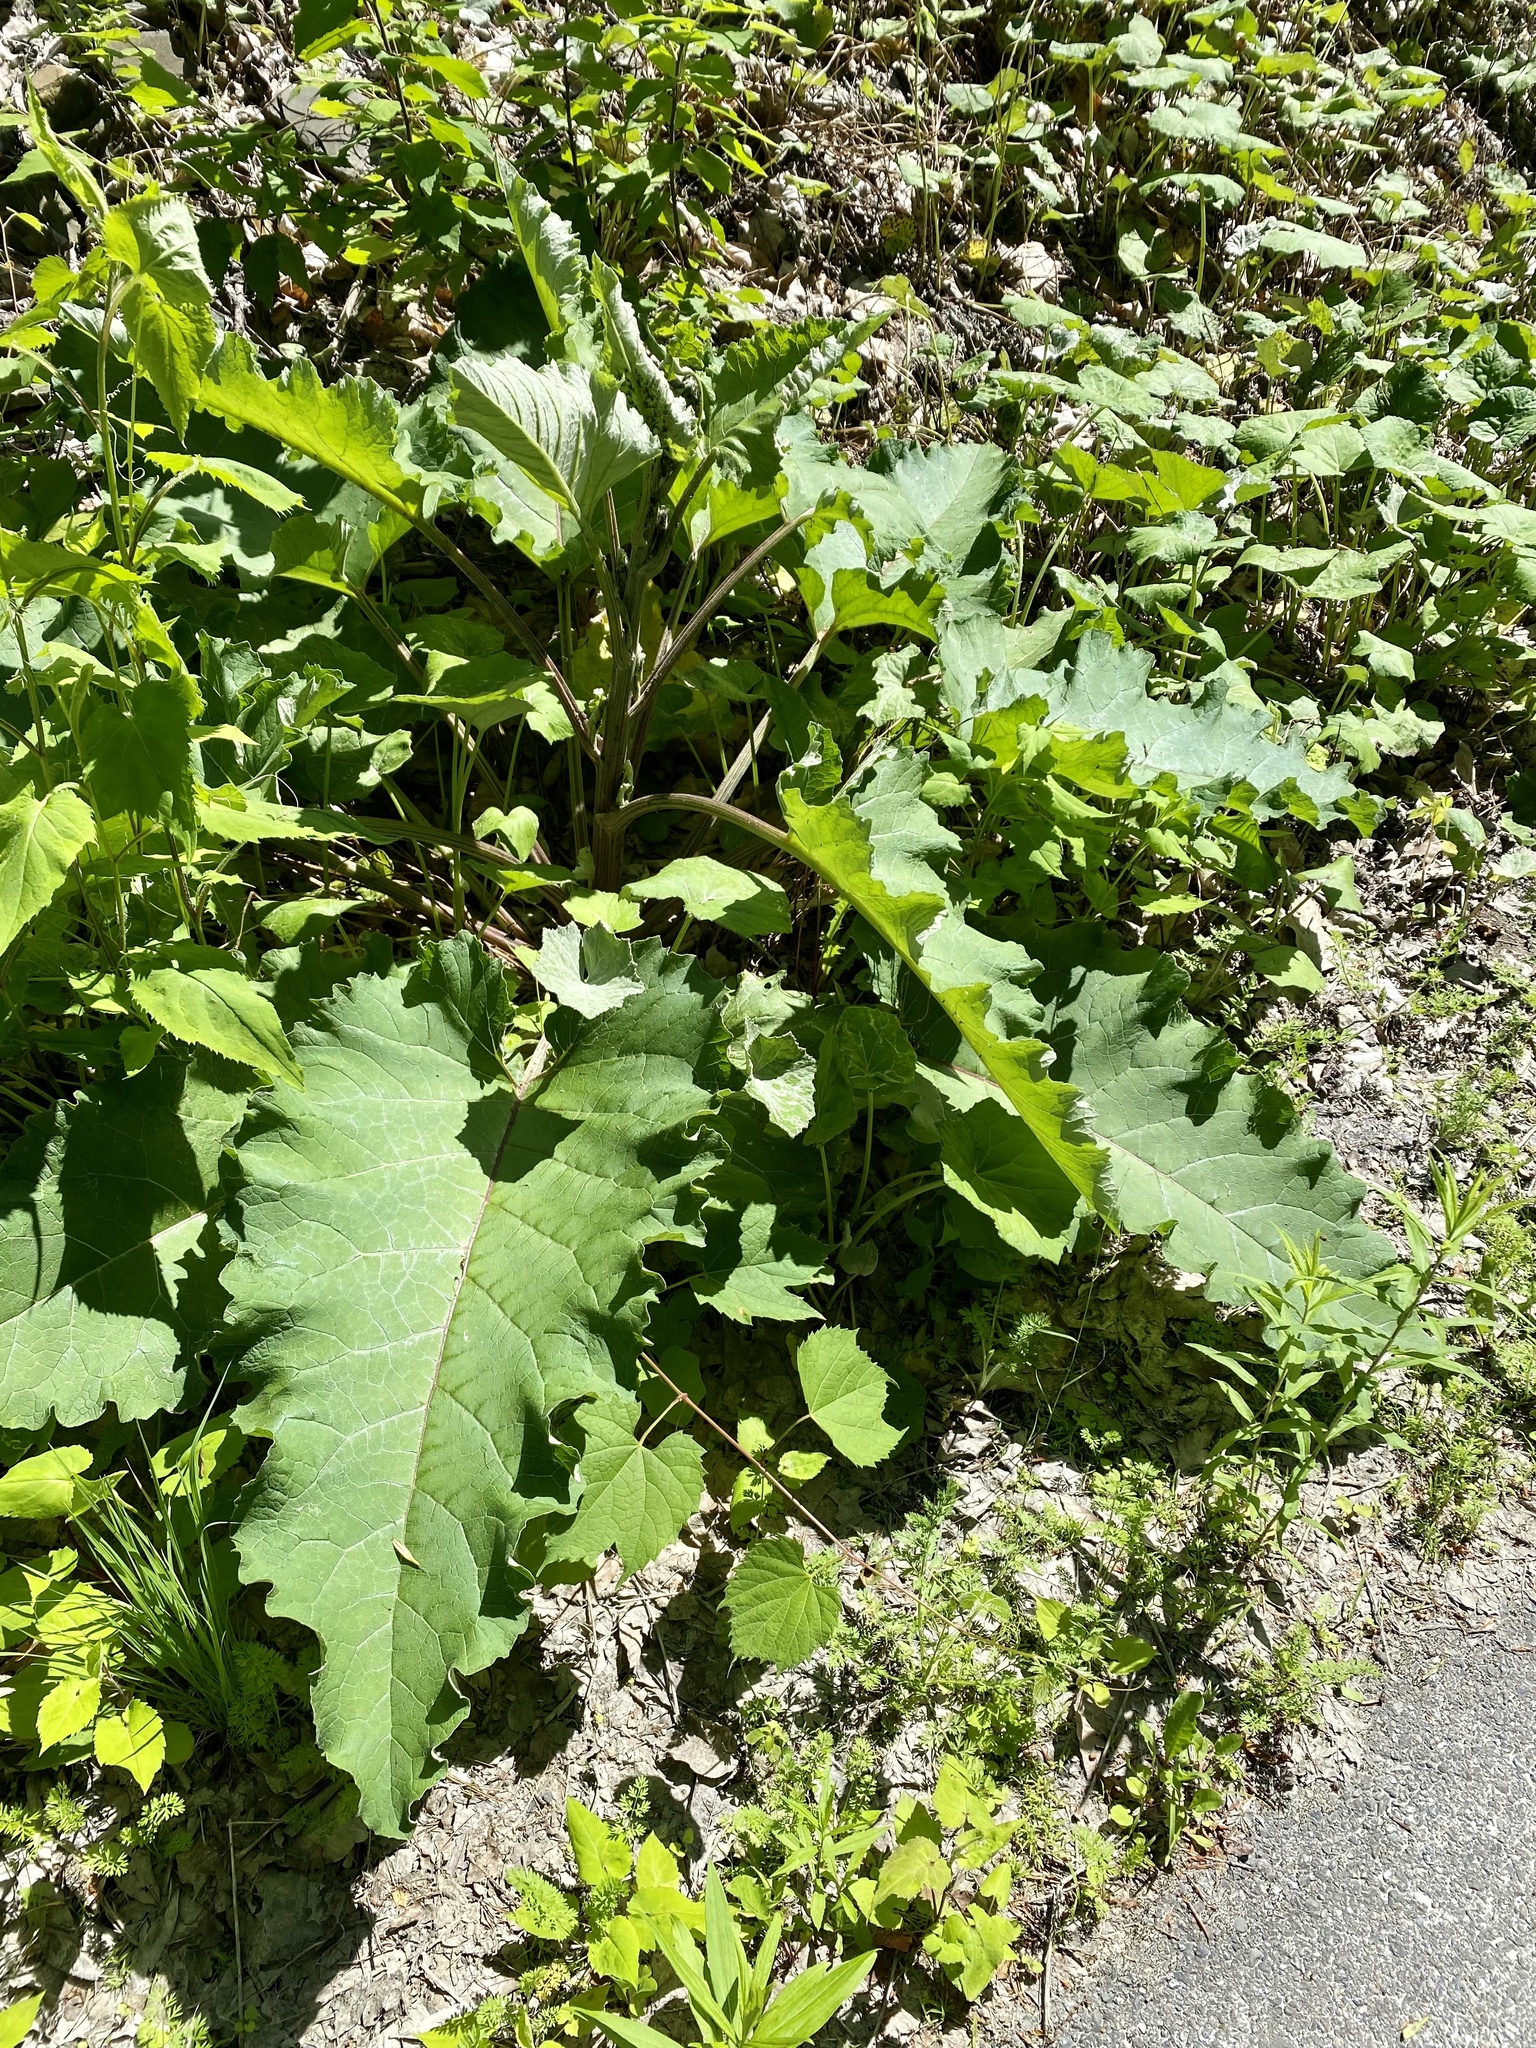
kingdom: Plantae
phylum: Tracheophyta
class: Magnoliopsida
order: Asterales
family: Asteraceae
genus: Arctium
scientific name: Arctium
